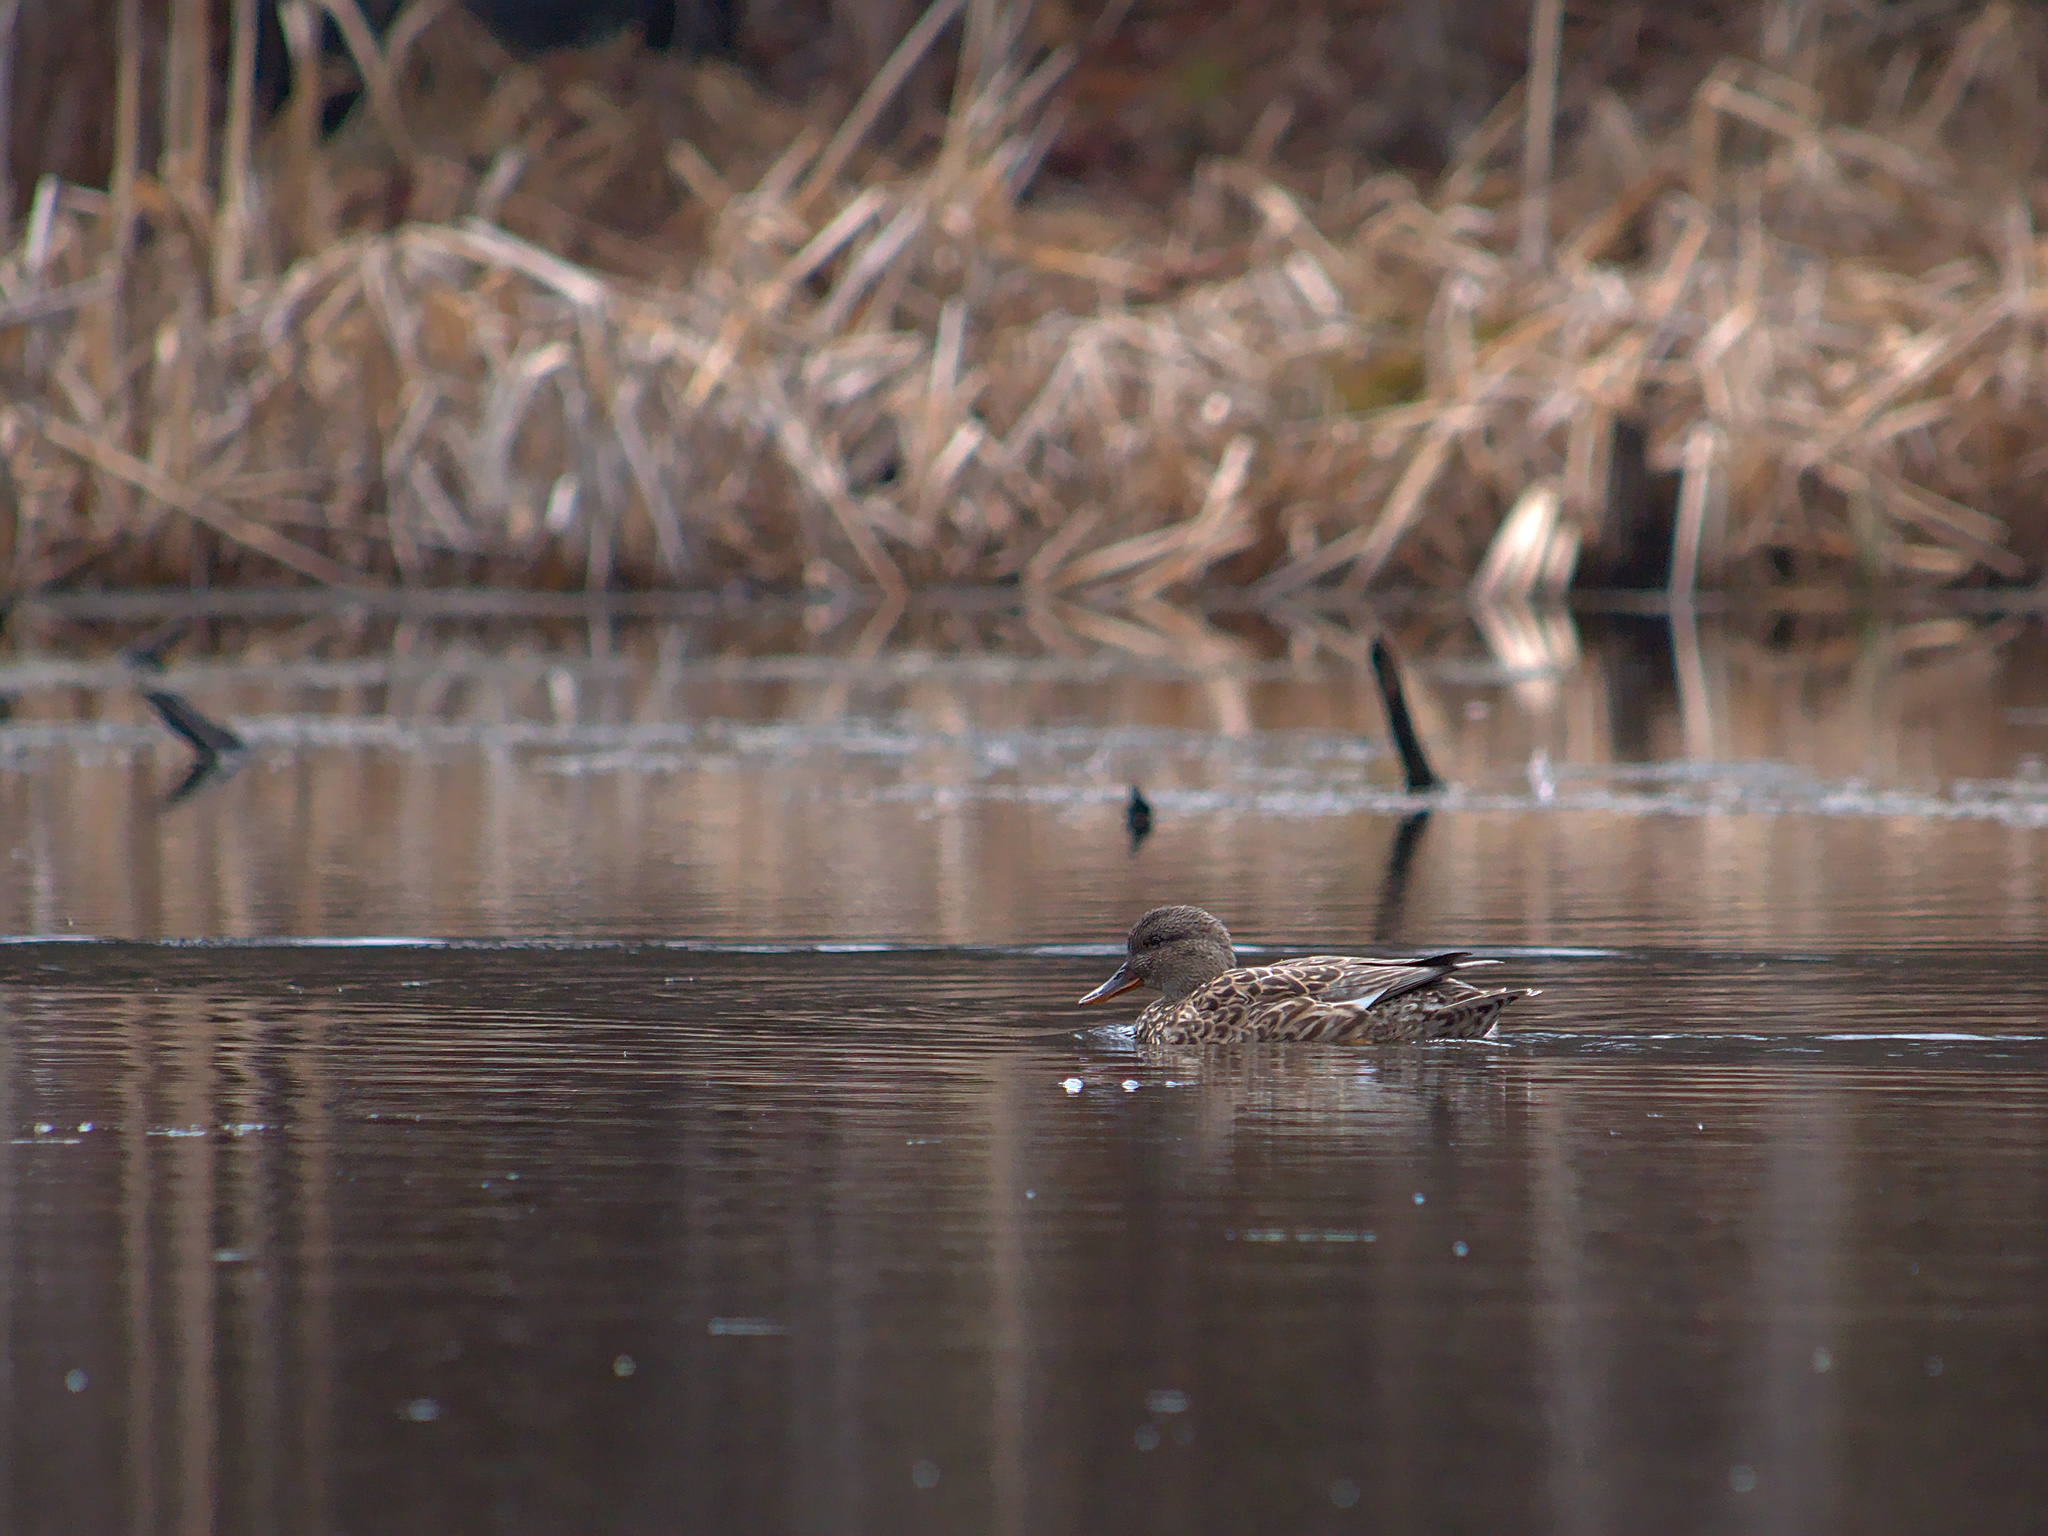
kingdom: Animalia
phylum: Chordata
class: Aves
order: Anseriformes
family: Anatidae
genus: Spatula
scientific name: Spatula discors
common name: Blue-winged teal
